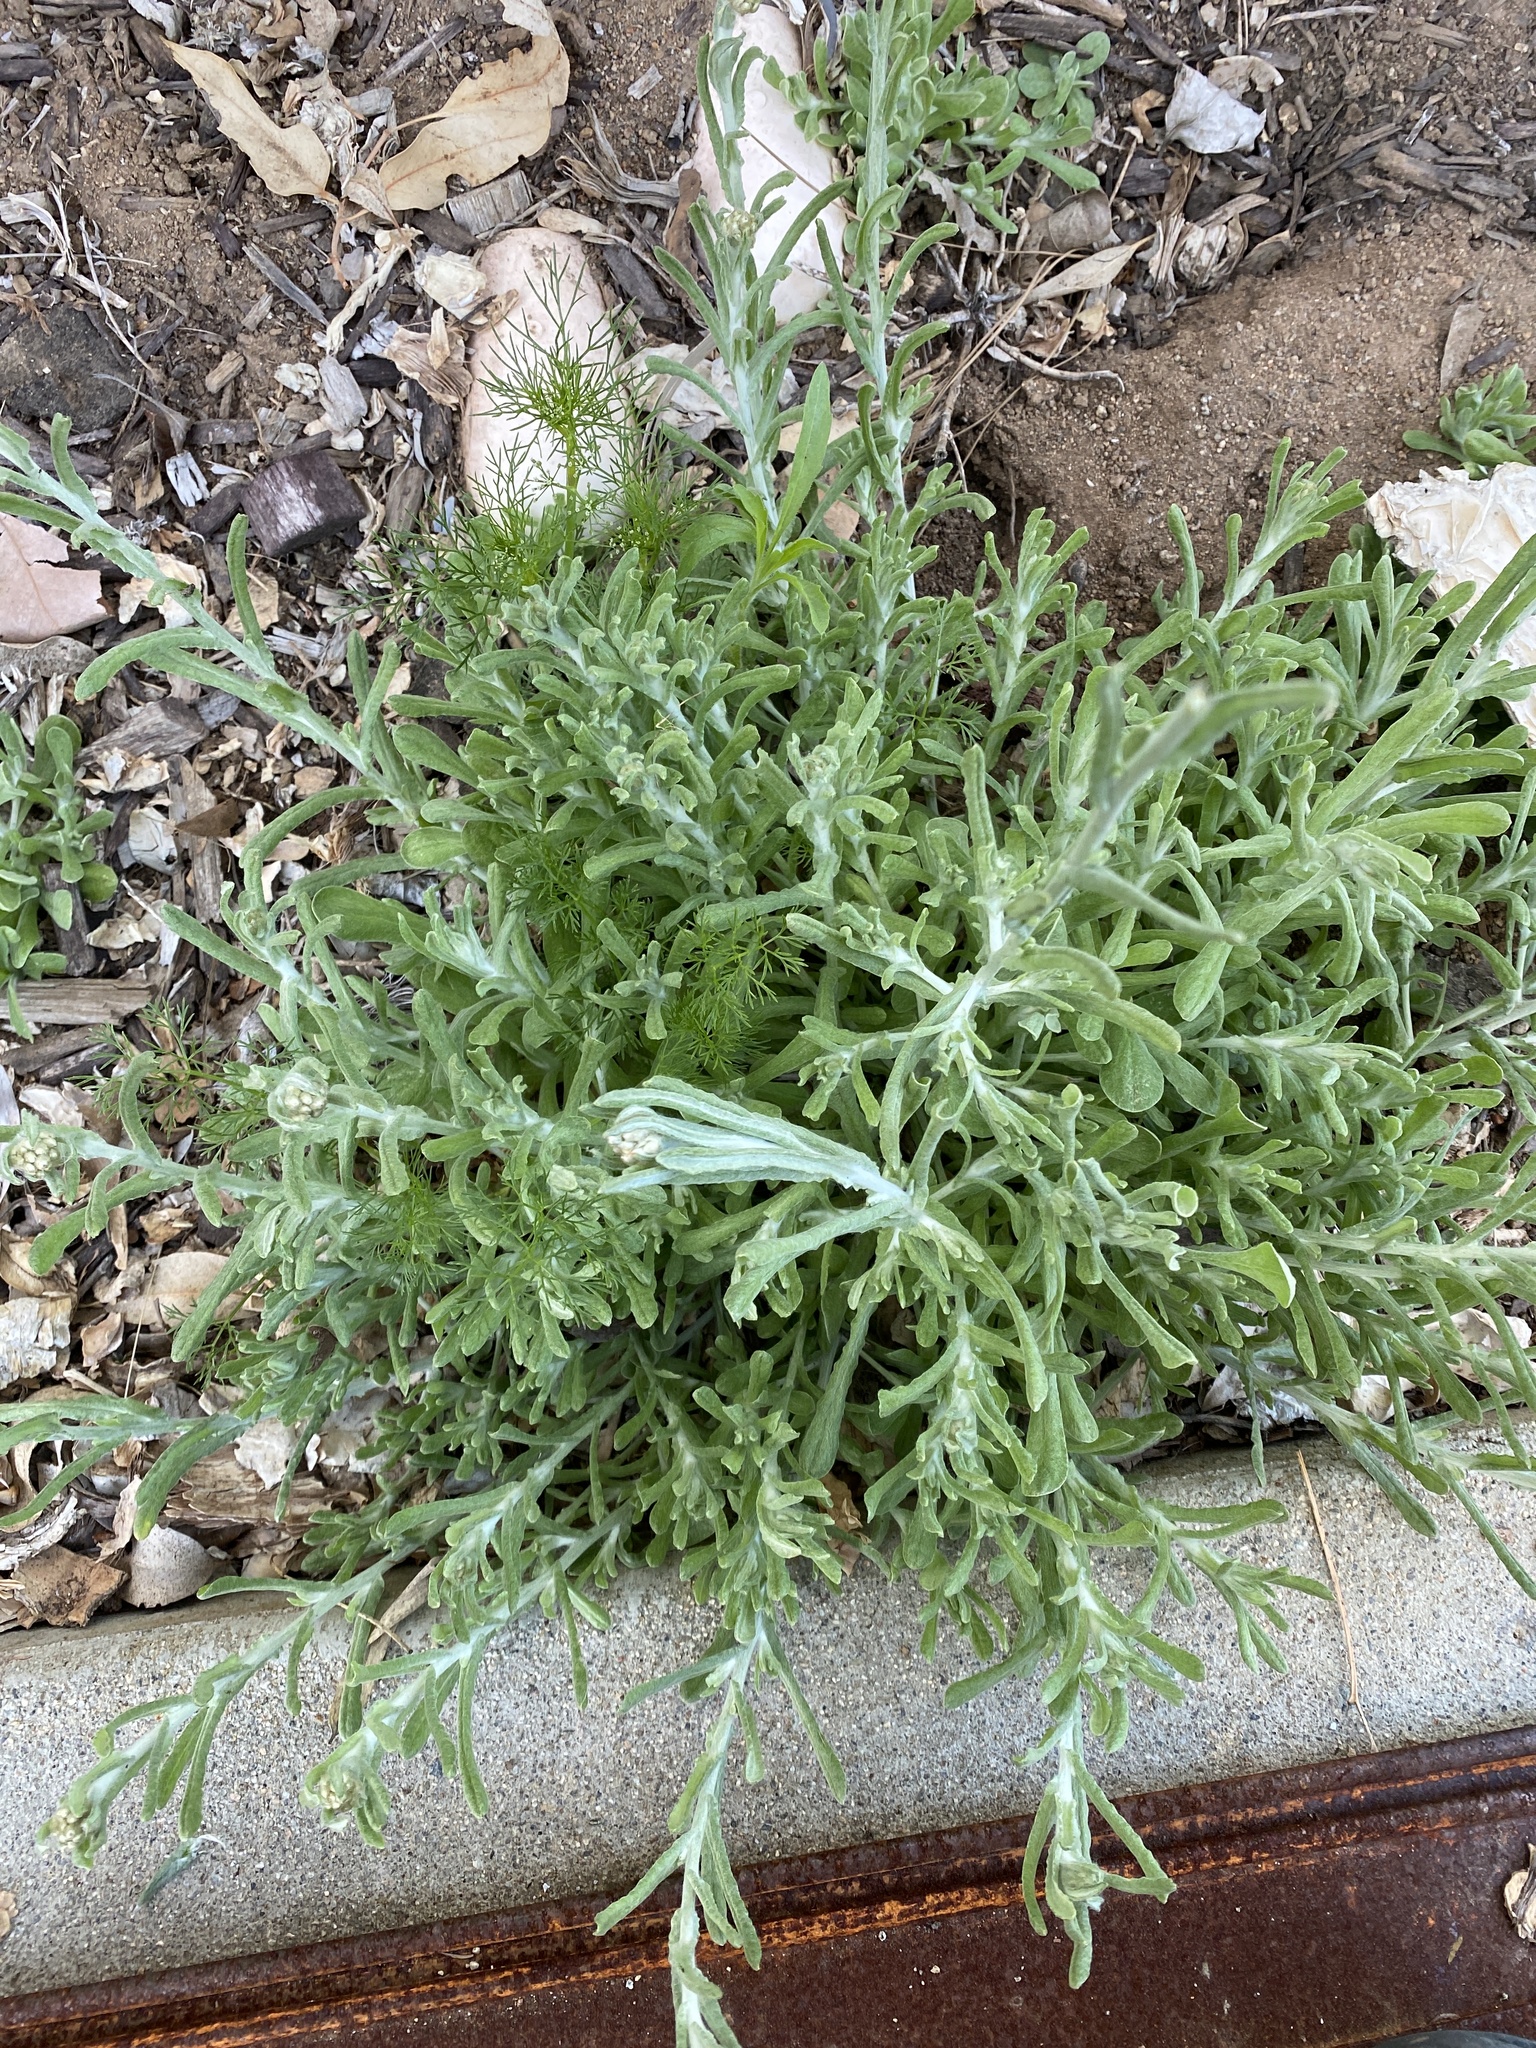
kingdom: Plantae
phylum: Tracheophyta
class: Magnoliopsida
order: Asterales
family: Asteraceae
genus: Helichrysum
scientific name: Helichrysum luteoalbum
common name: Daisy
